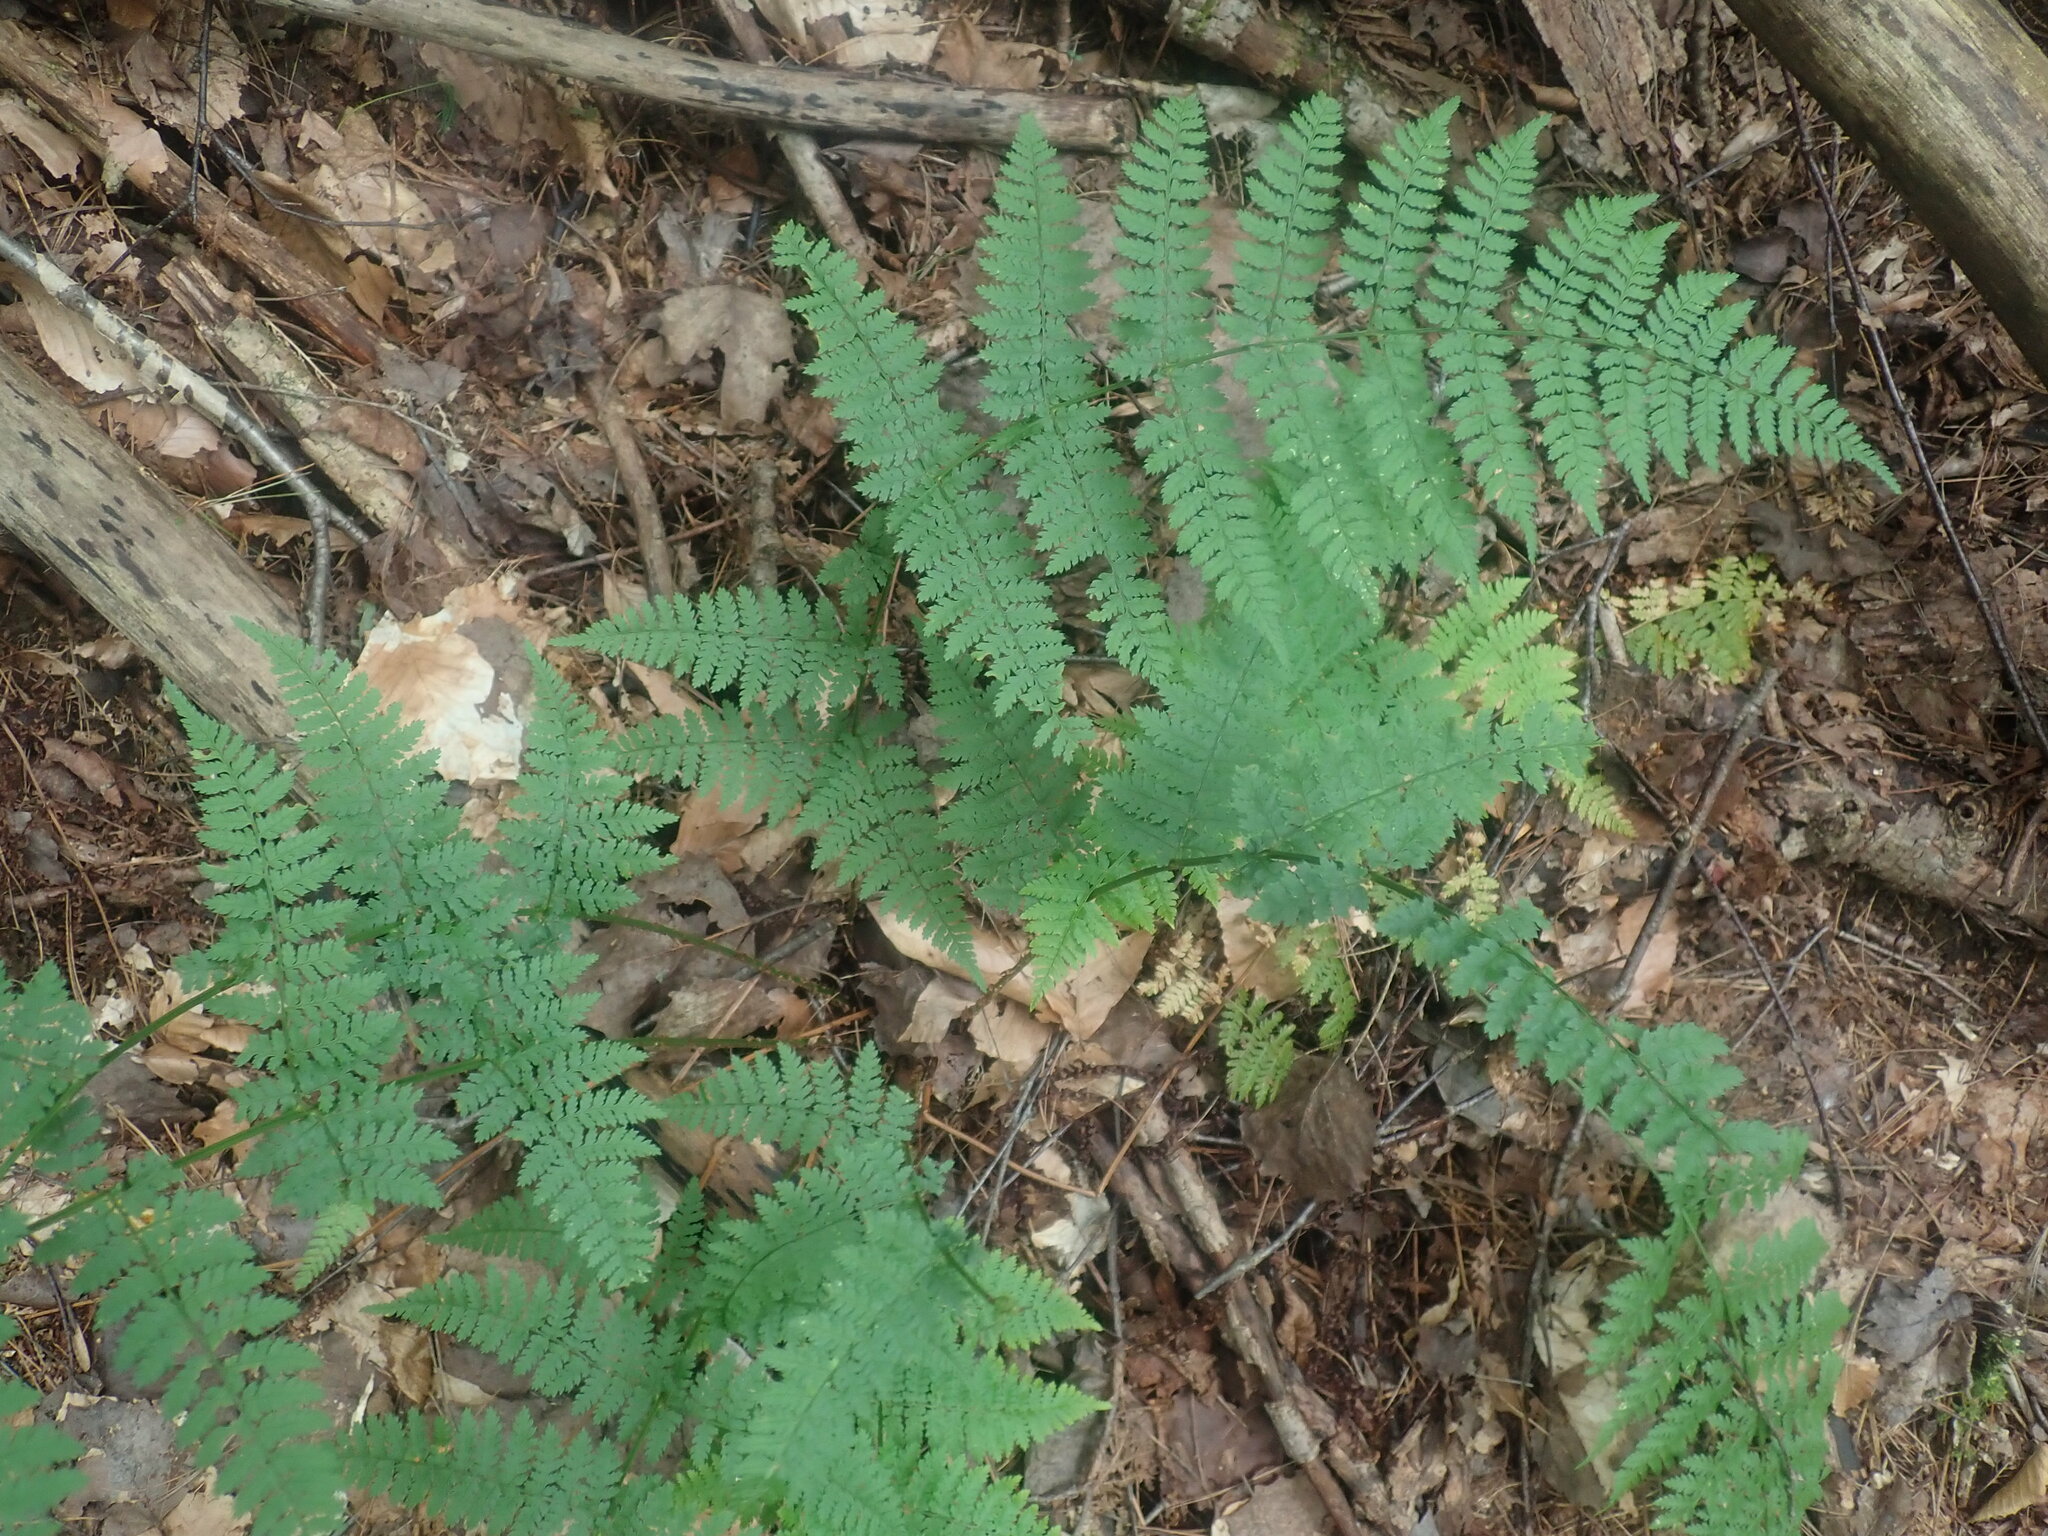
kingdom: Plantae
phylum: Tracheophyta
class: Polypodiopsida
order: Polypodiales
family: Dryopteridaceae
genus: Dryopteris
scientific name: Dryopteris intermedia
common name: Evergreen wood fern
